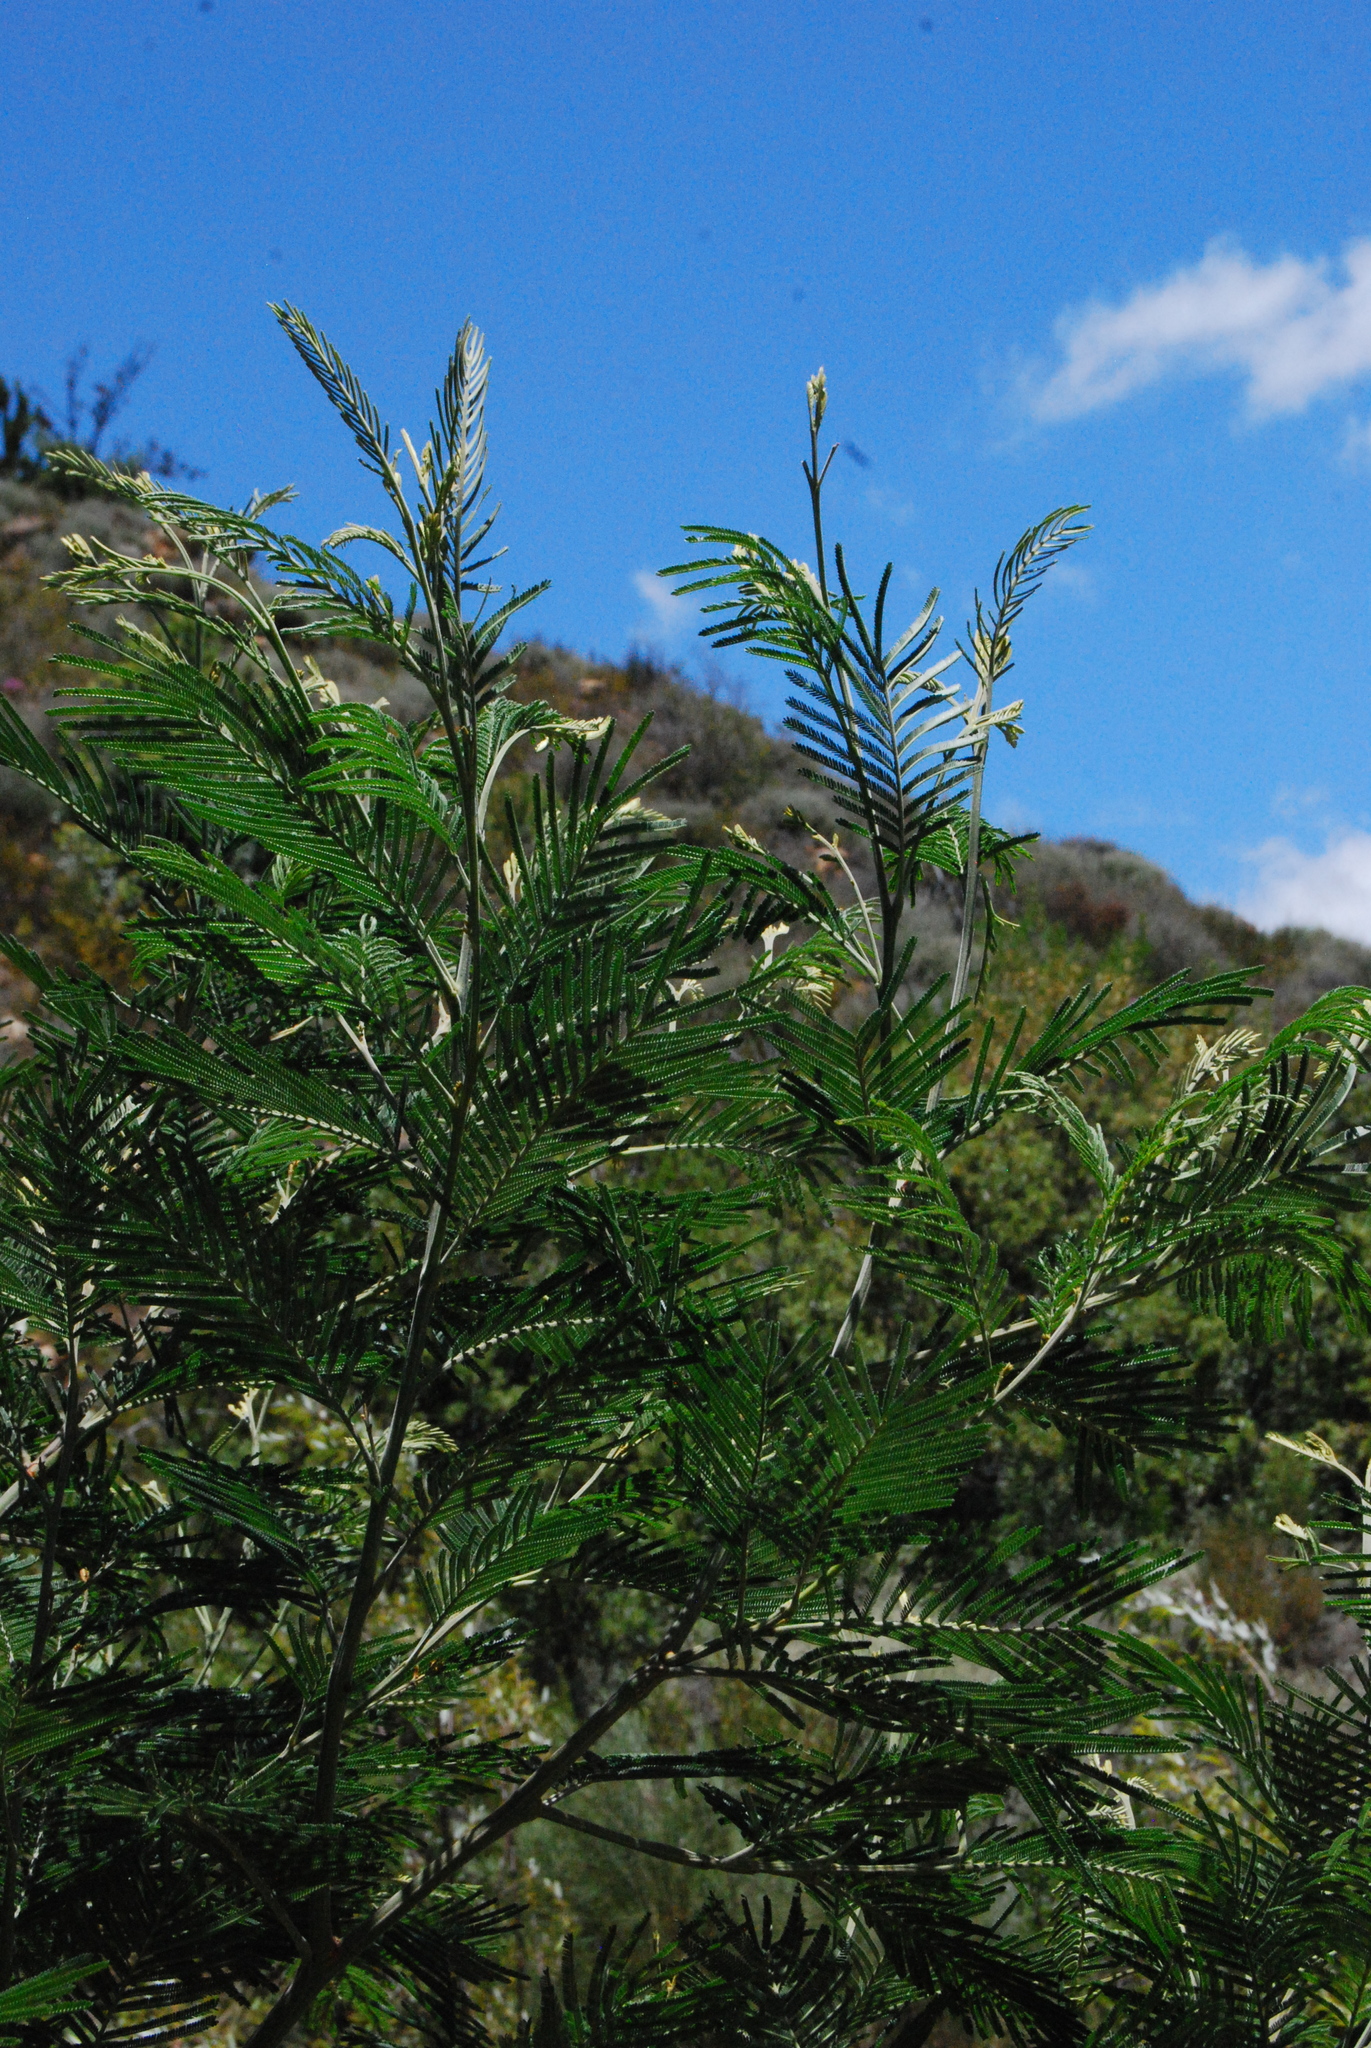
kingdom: Plantae
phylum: Tracheophyta
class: Magnoliopsida
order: Fabales
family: Fabaceae
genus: Acacia
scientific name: Acacia mearnsii
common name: Black wattle
